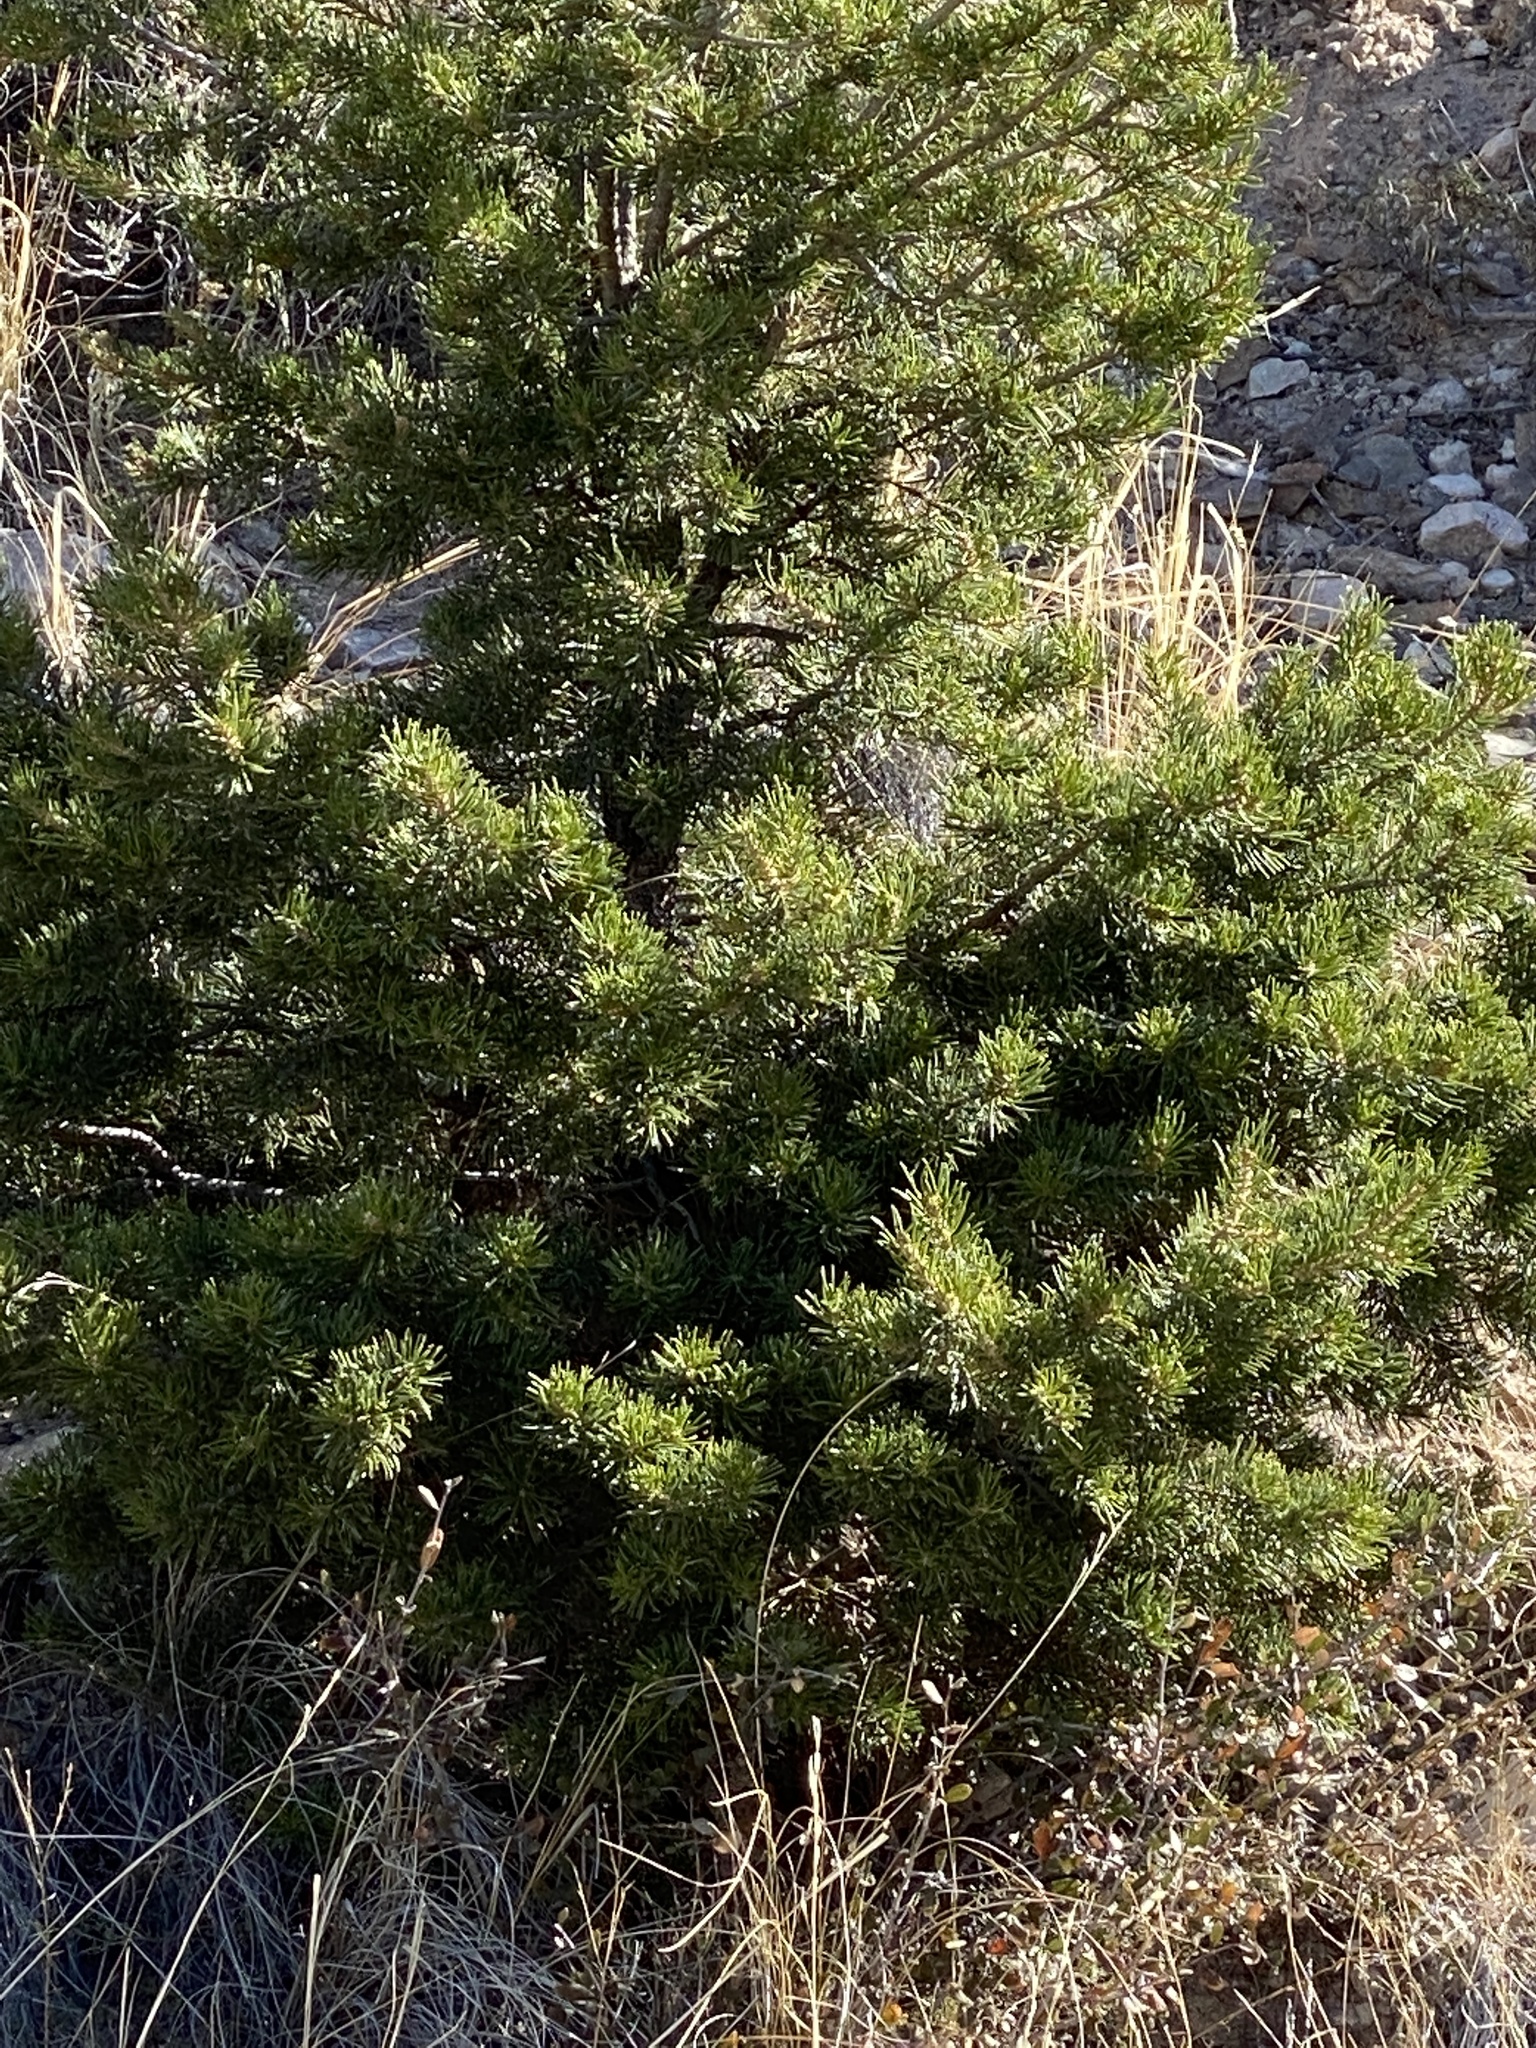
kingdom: Plantae
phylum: Tracheophyta
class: Pinopsida
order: Pinales
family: Pinaceae
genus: Pinus
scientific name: Pinus edulis
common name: Colorado pinyon
